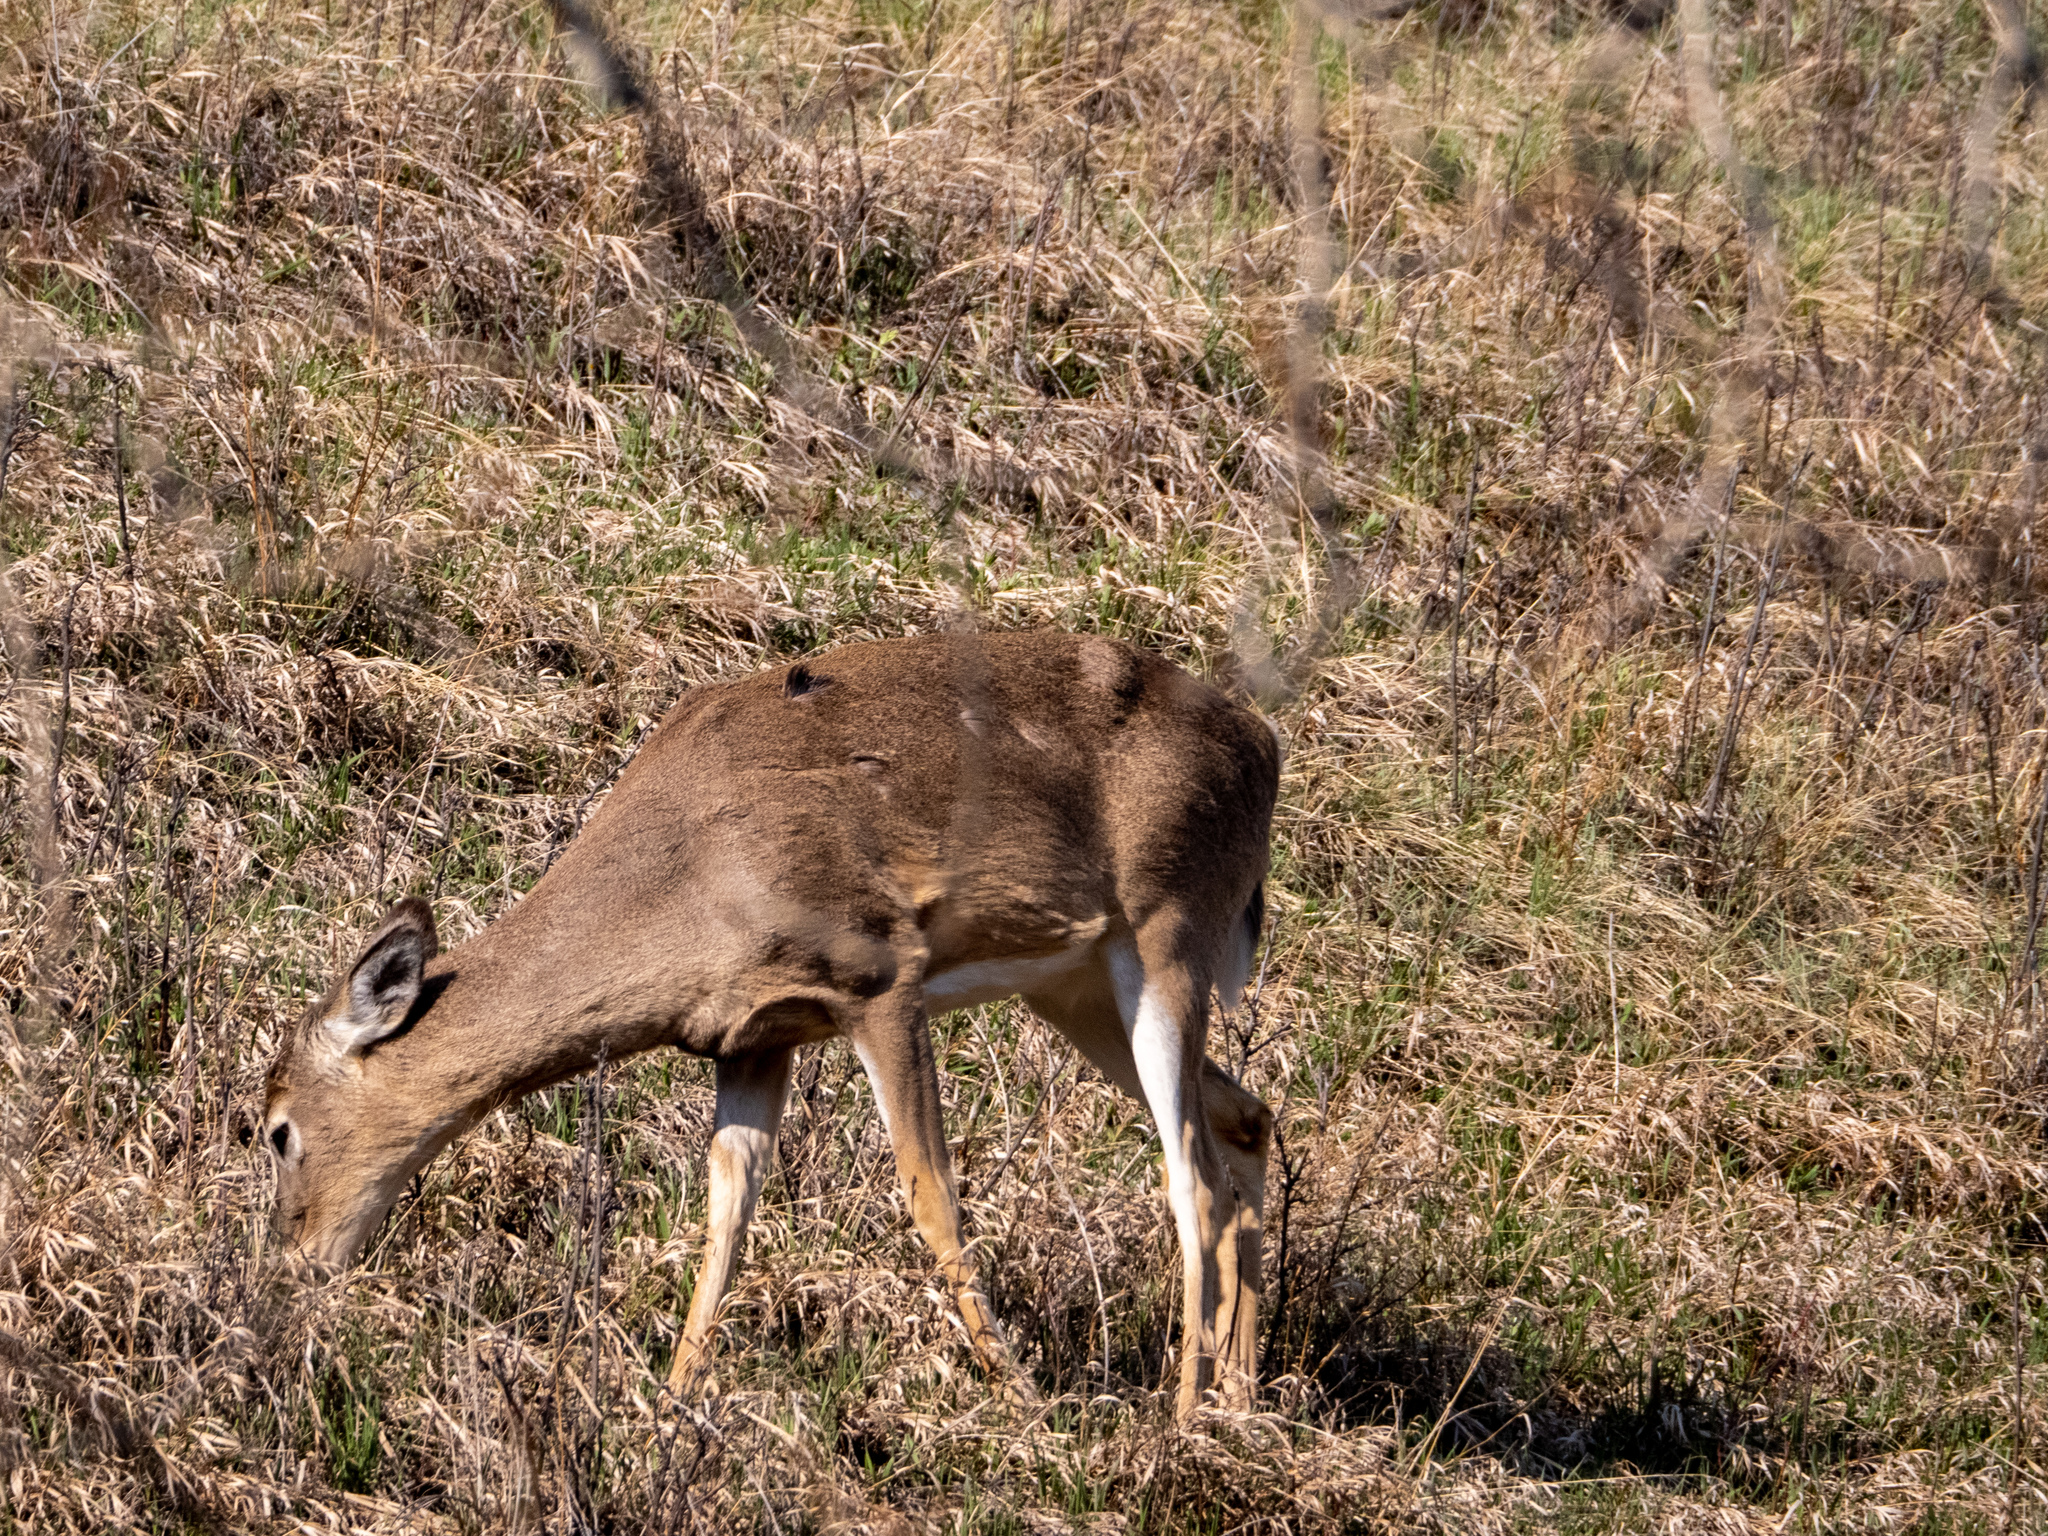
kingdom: Animalia
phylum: Chordata
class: Mammalia
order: Artiodactyla
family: Cervidae
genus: Odocoileus
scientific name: Odocoileus virginianus
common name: White-tailed deer
